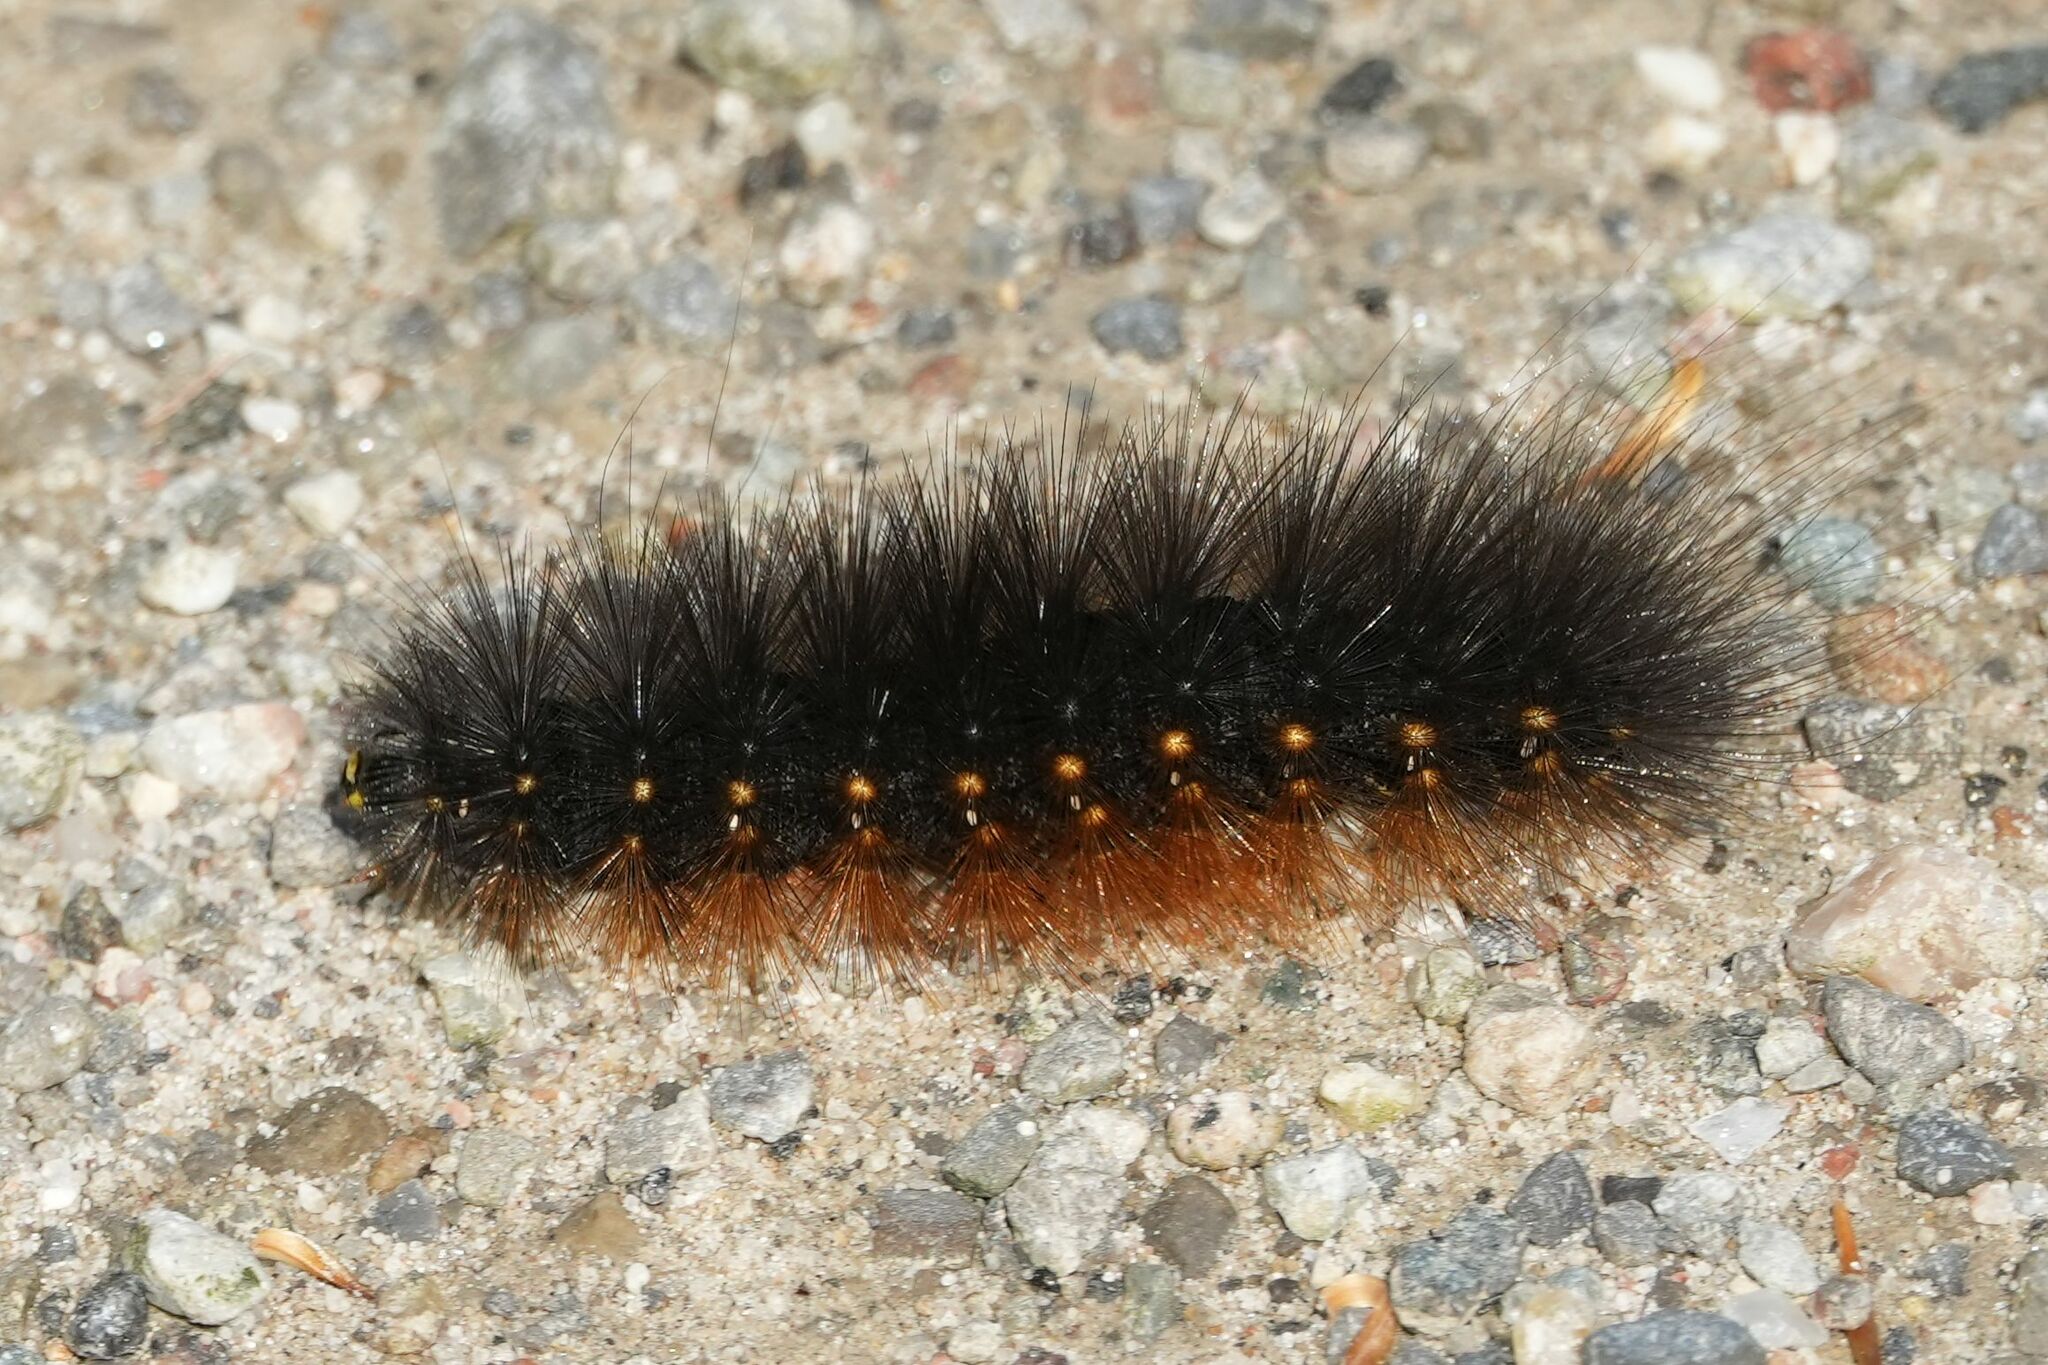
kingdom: Animalia
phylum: Arthropoda
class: Insecta
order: Lepidoptera
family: Erebidae
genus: Estigmene
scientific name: Estigmene acrea
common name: Salt marsh moth
